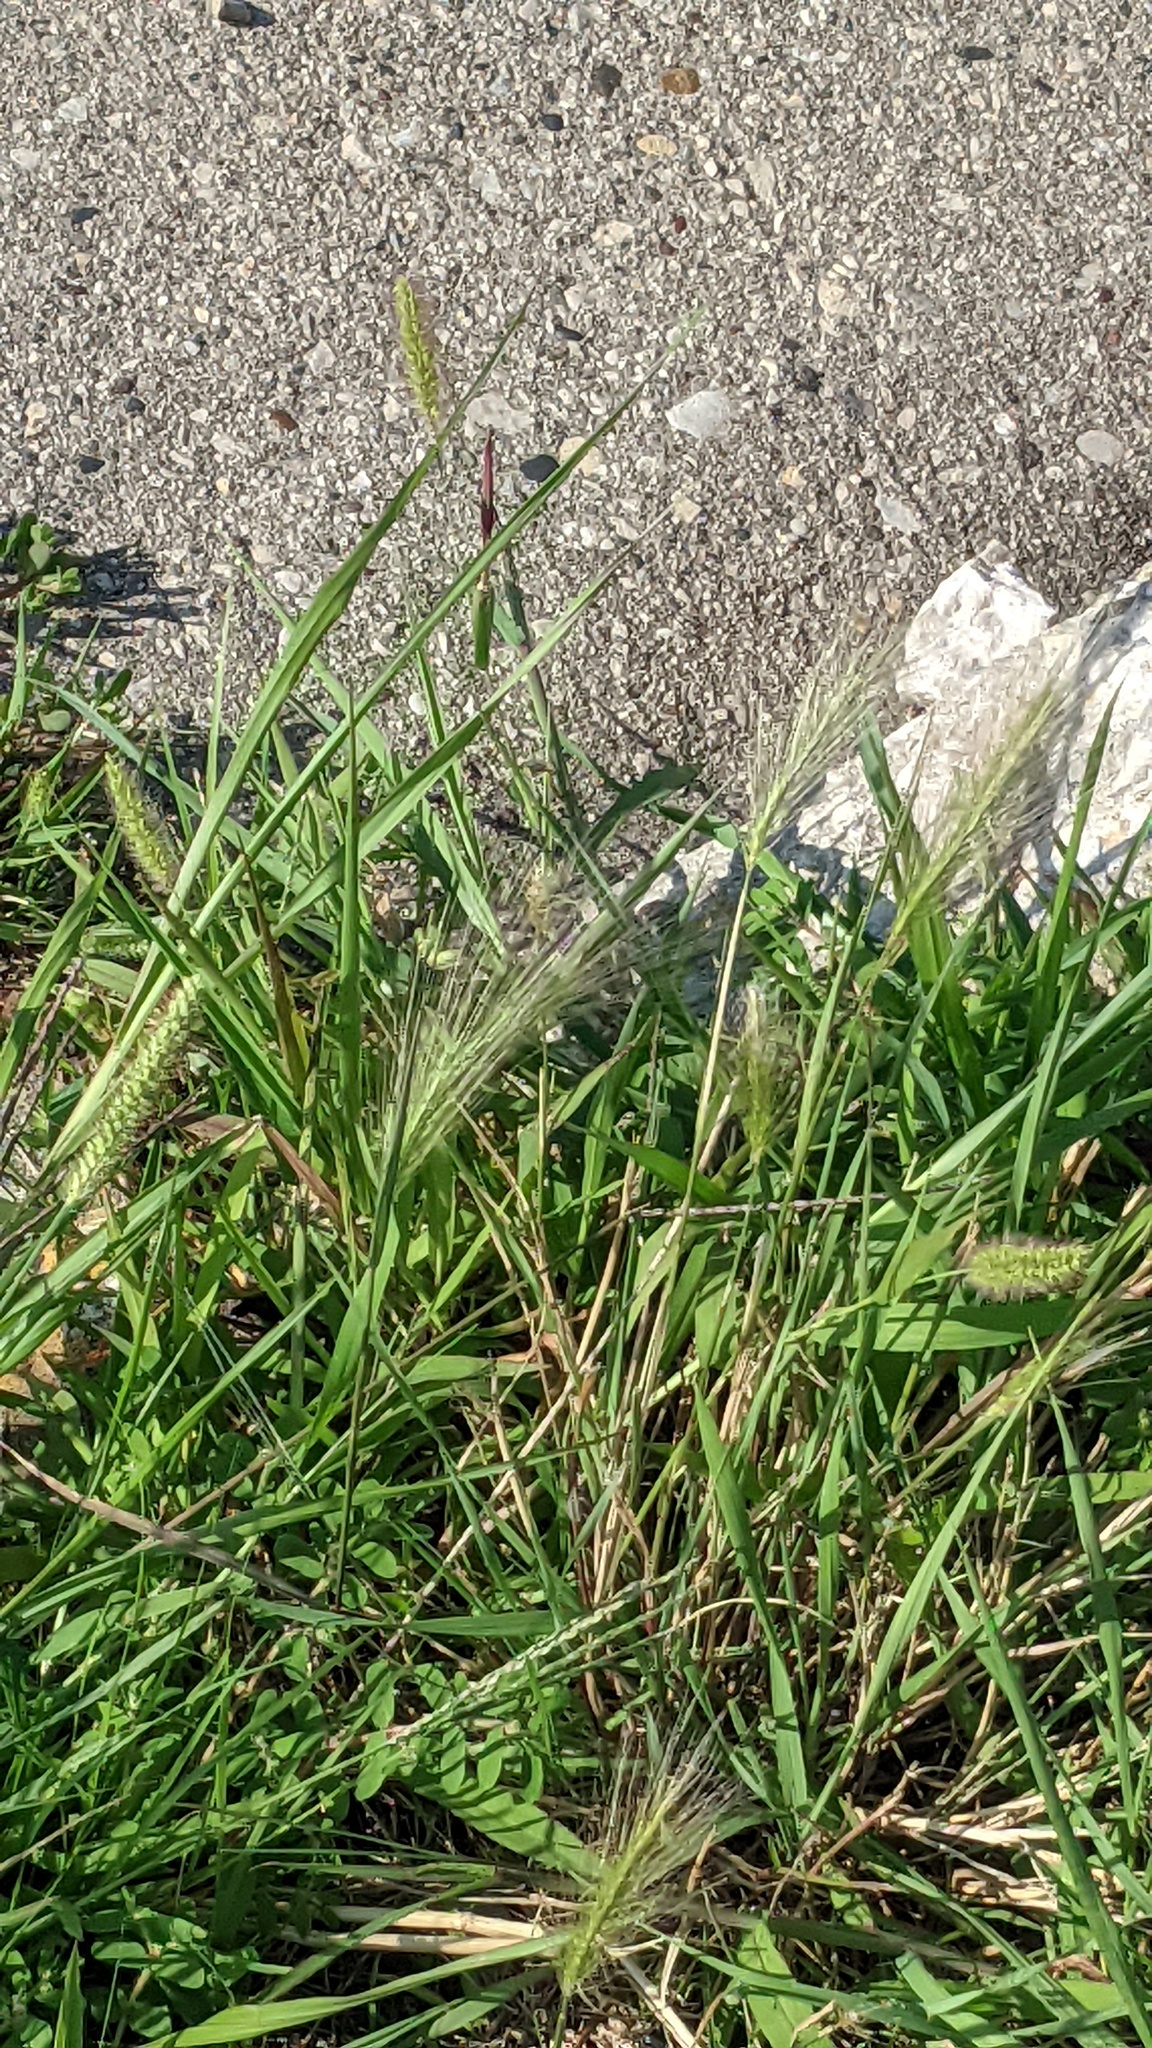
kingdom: Plantae
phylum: Tracheophyta
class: Liliopsida
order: Poales
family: Poaceae
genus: Hordeum
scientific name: Hordeum jubatum
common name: Foxtail barley
